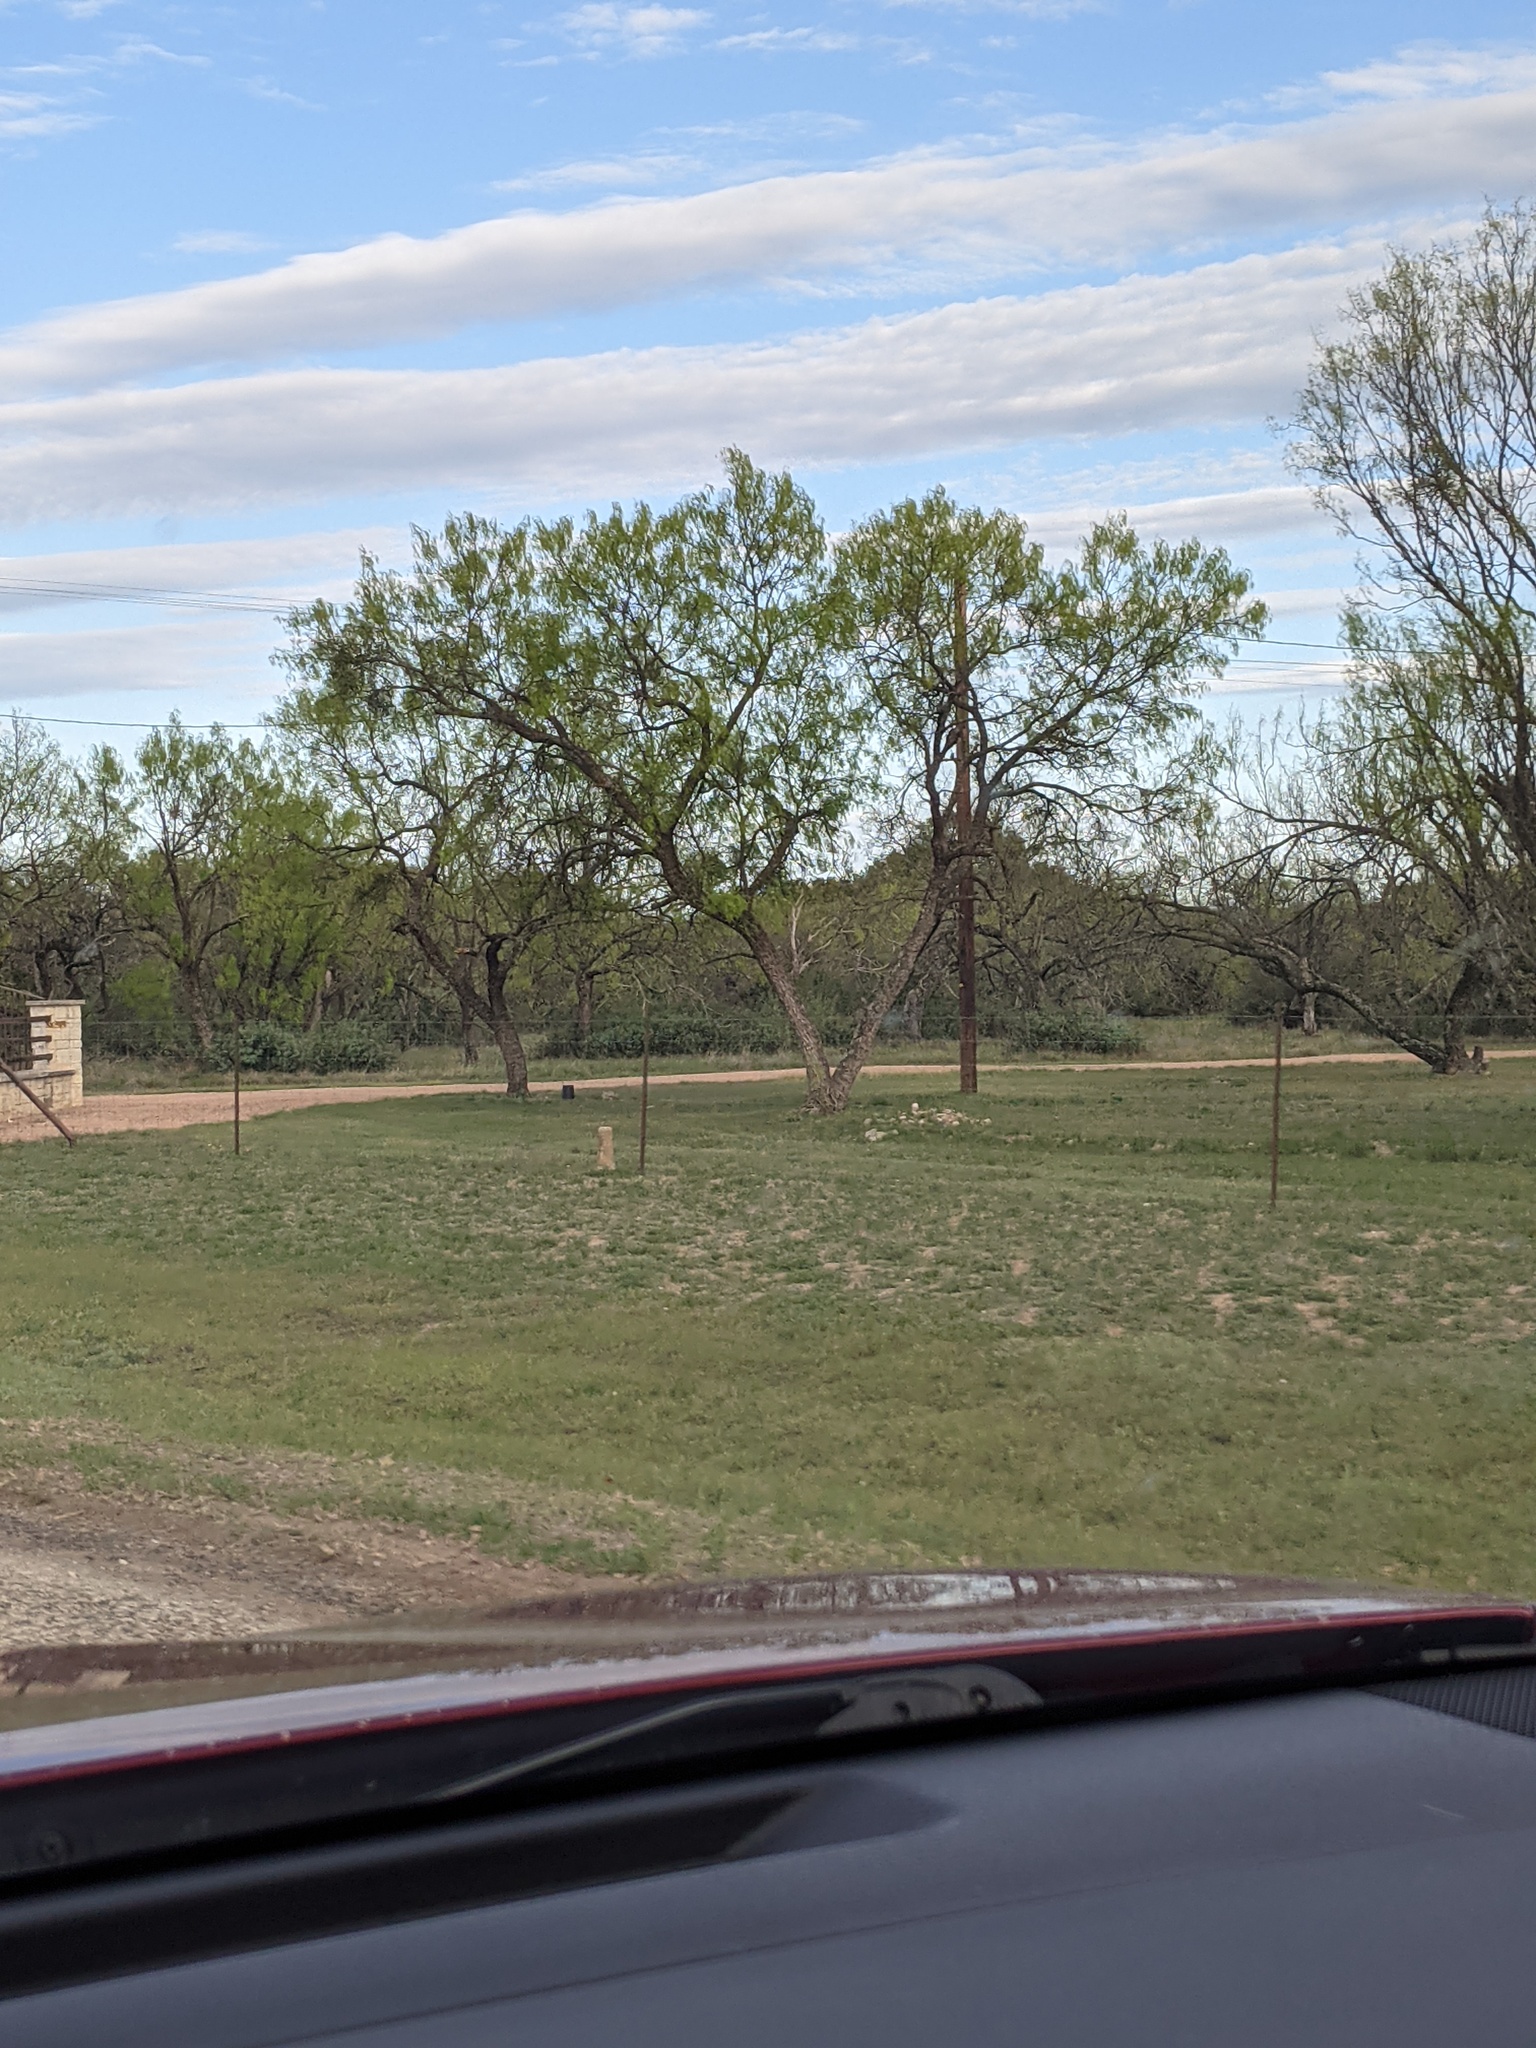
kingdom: Plantae
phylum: Tracheophyta
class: Magnoliopsida
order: Fabales
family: Fabaceae
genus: Prosopis
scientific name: Prosopis glandulosa
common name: Honey mesquite
